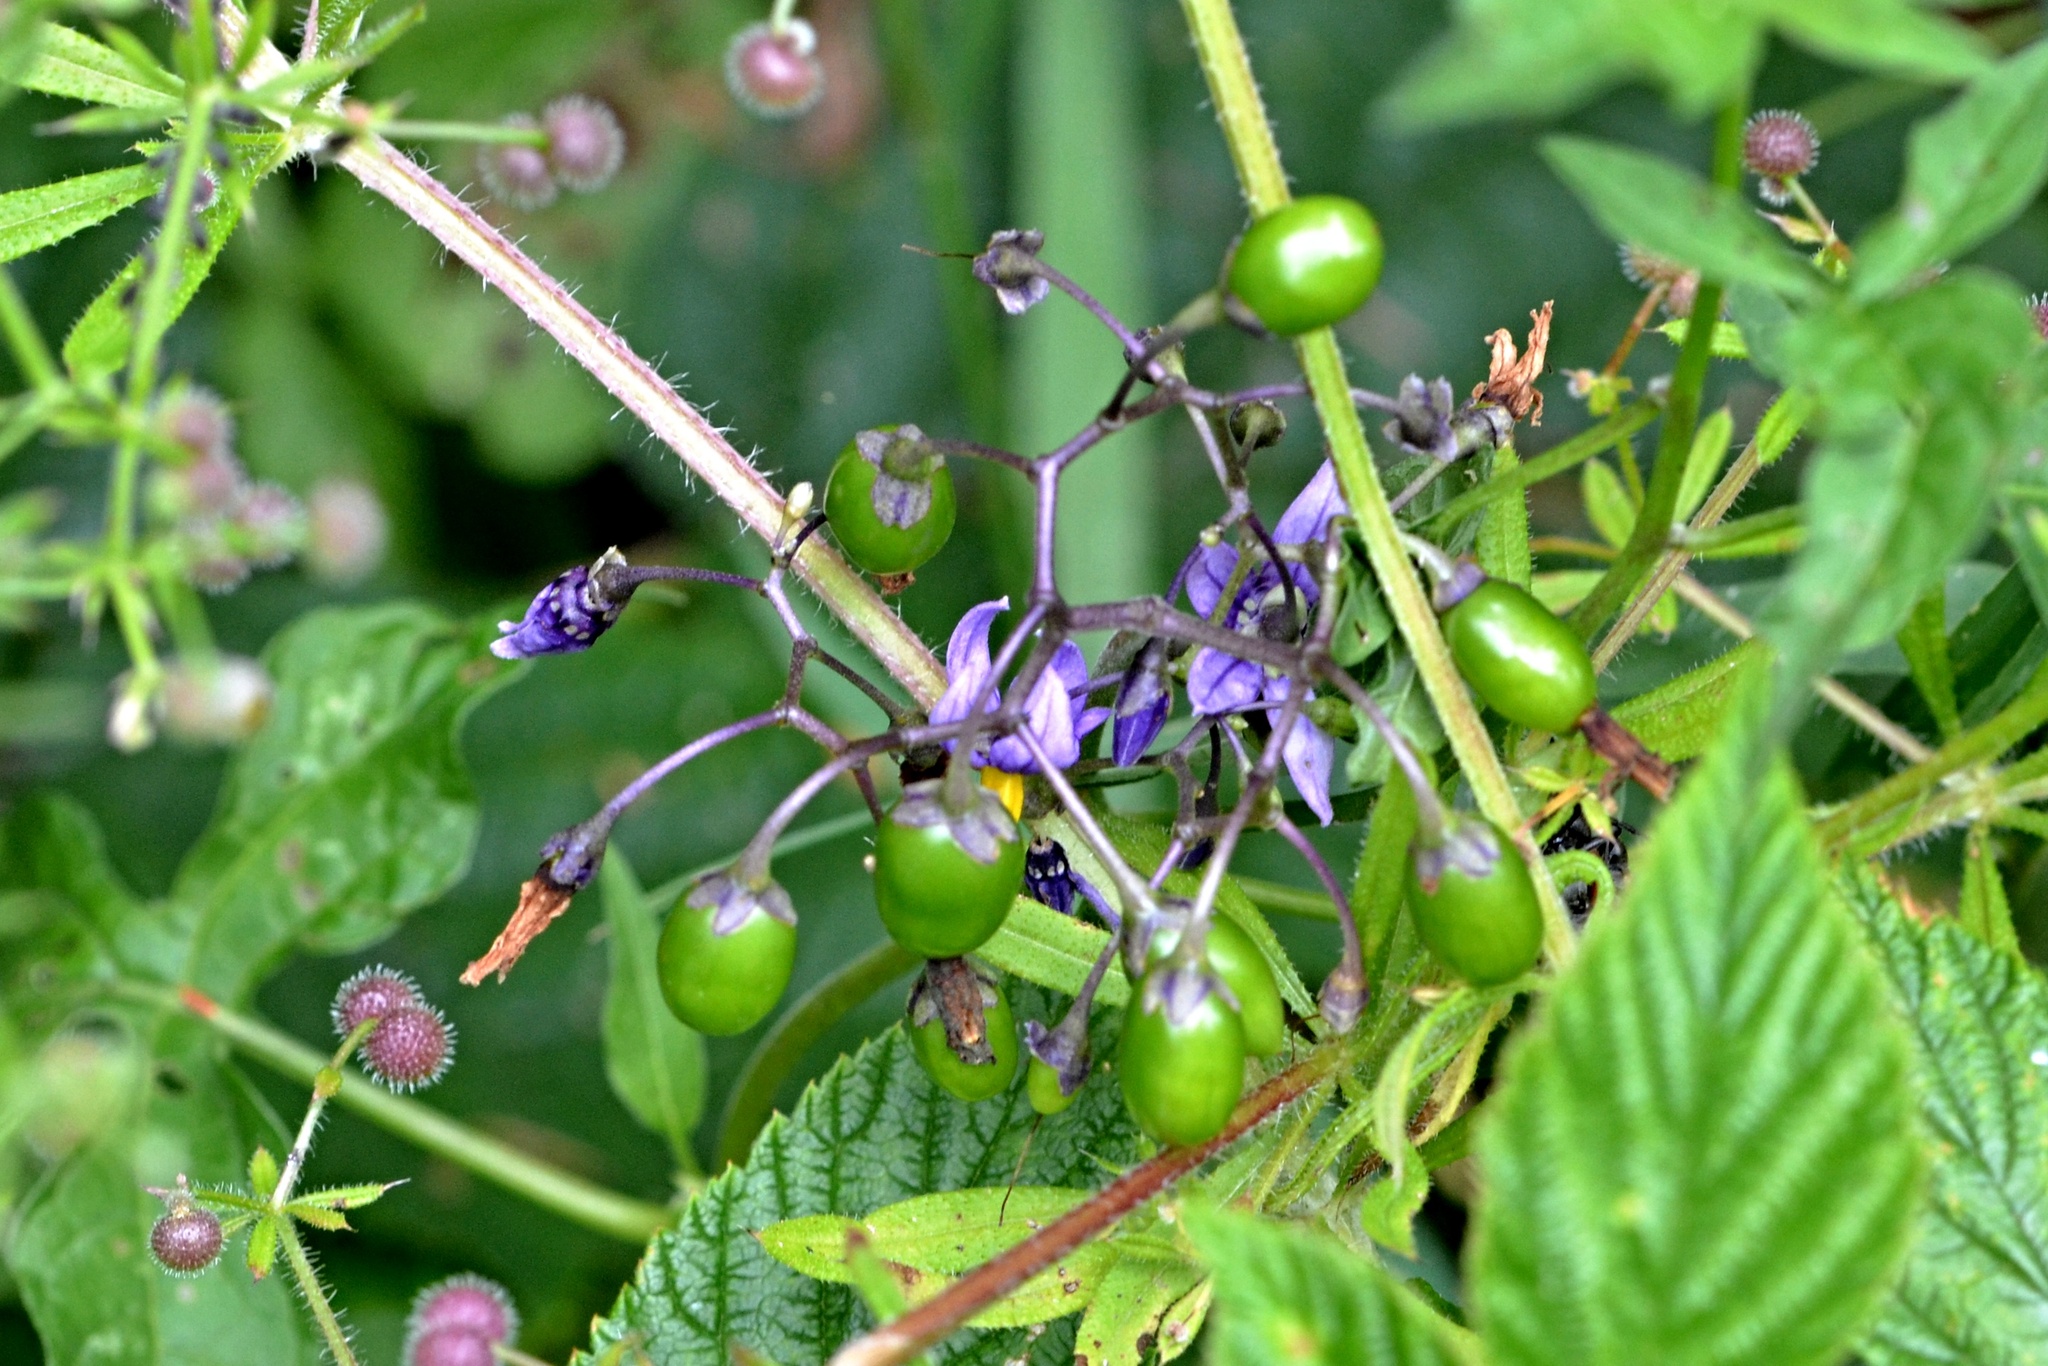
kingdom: Plantae
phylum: Tracheophyta
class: Magnoliopsida
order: Solanales
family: Solanaceae
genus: Solanum
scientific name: Solanum dulcamara
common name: Climbing nightshade
